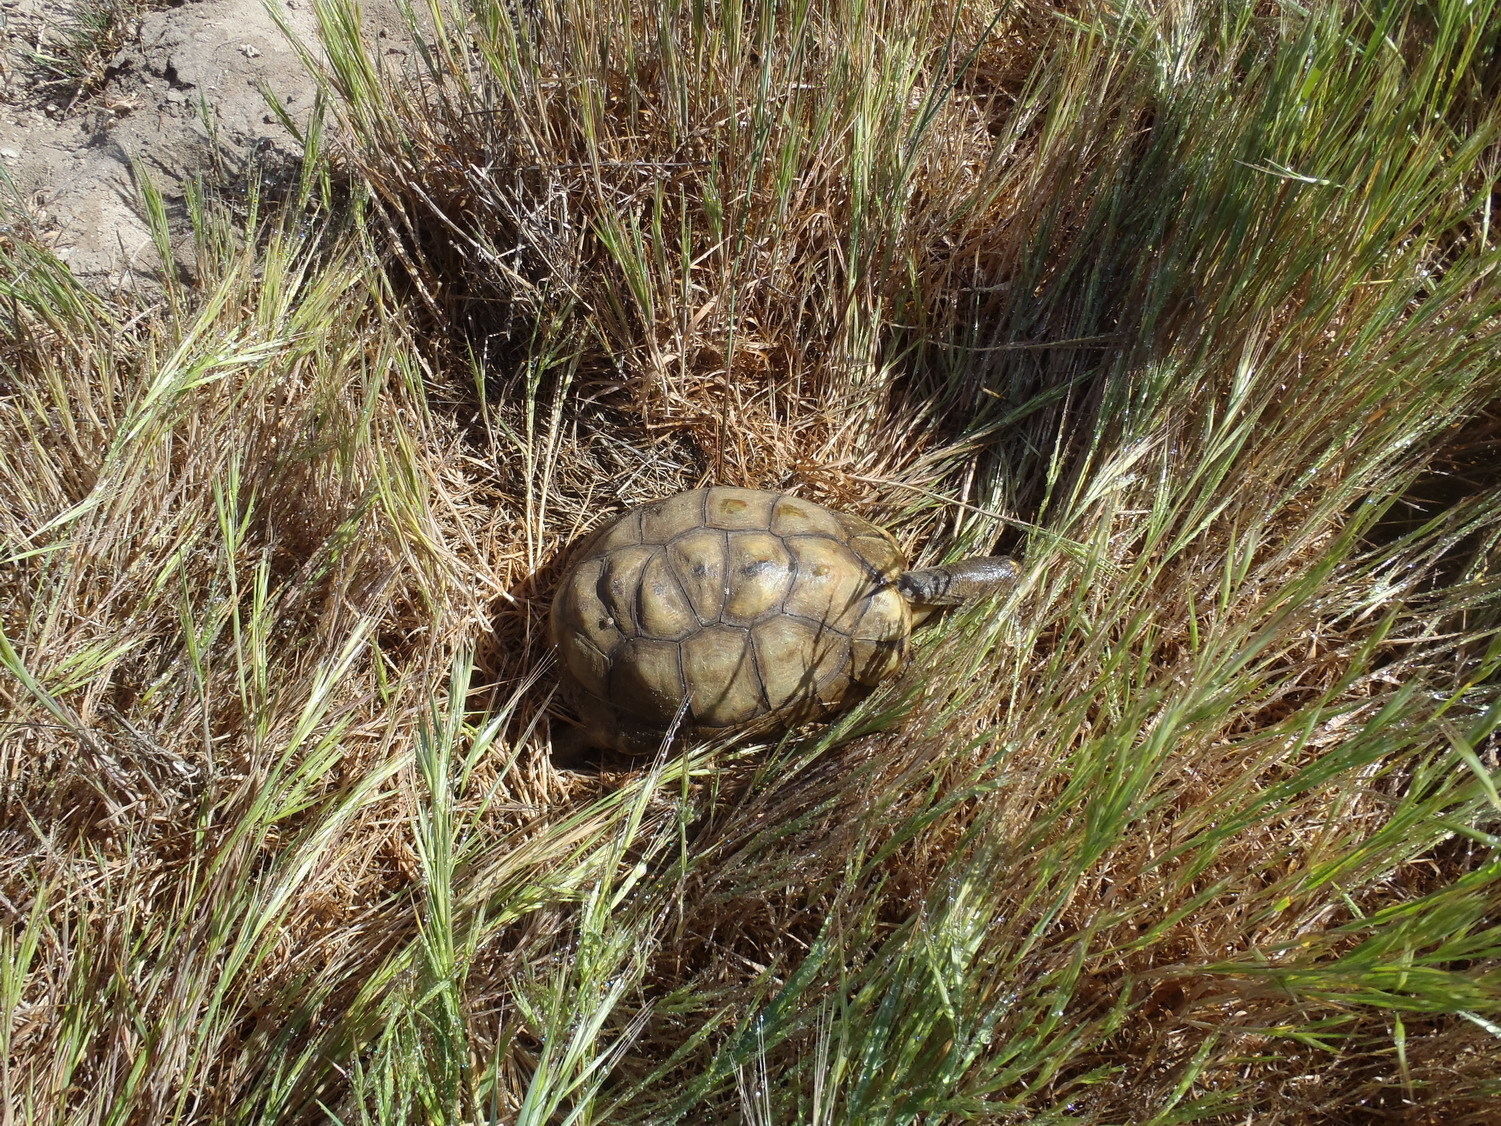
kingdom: Animalia
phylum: Chordata
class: Testudines
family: Testudinidae
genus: Chersina
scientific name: Chersina angulata
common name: South african bowsprit tortoise
